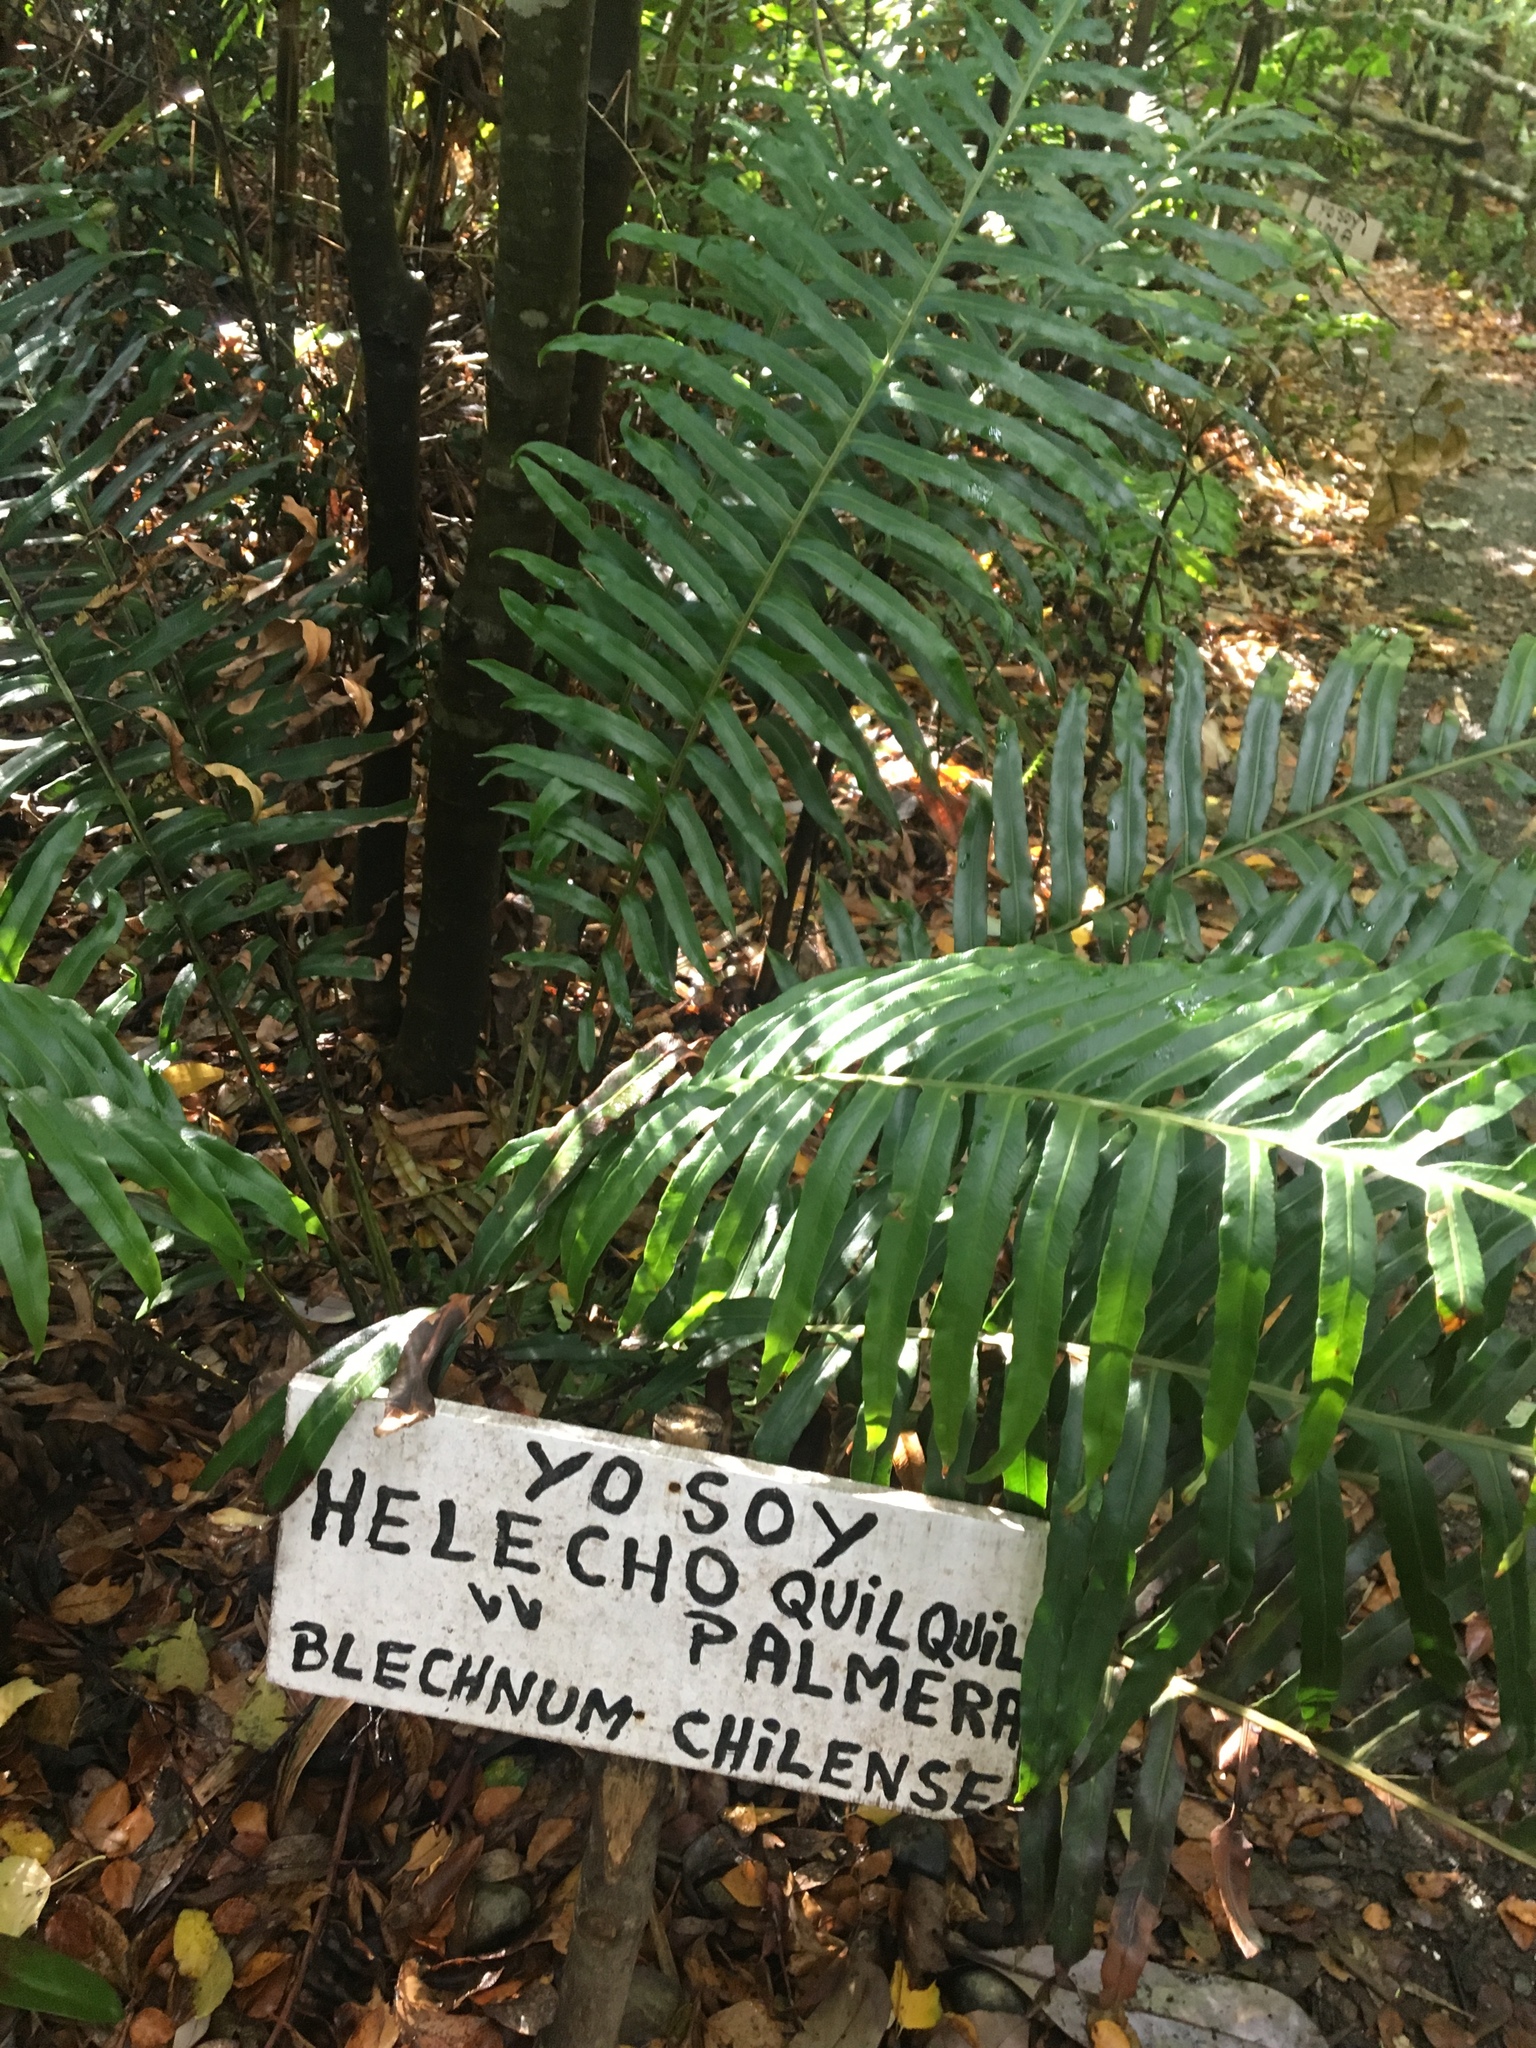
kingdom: Plantae
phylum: Tracheophyta
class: Polypodiopsida
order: Polypodiales
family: Blechnaceae
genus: Parablechnum
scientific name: Parablechnum chilense
